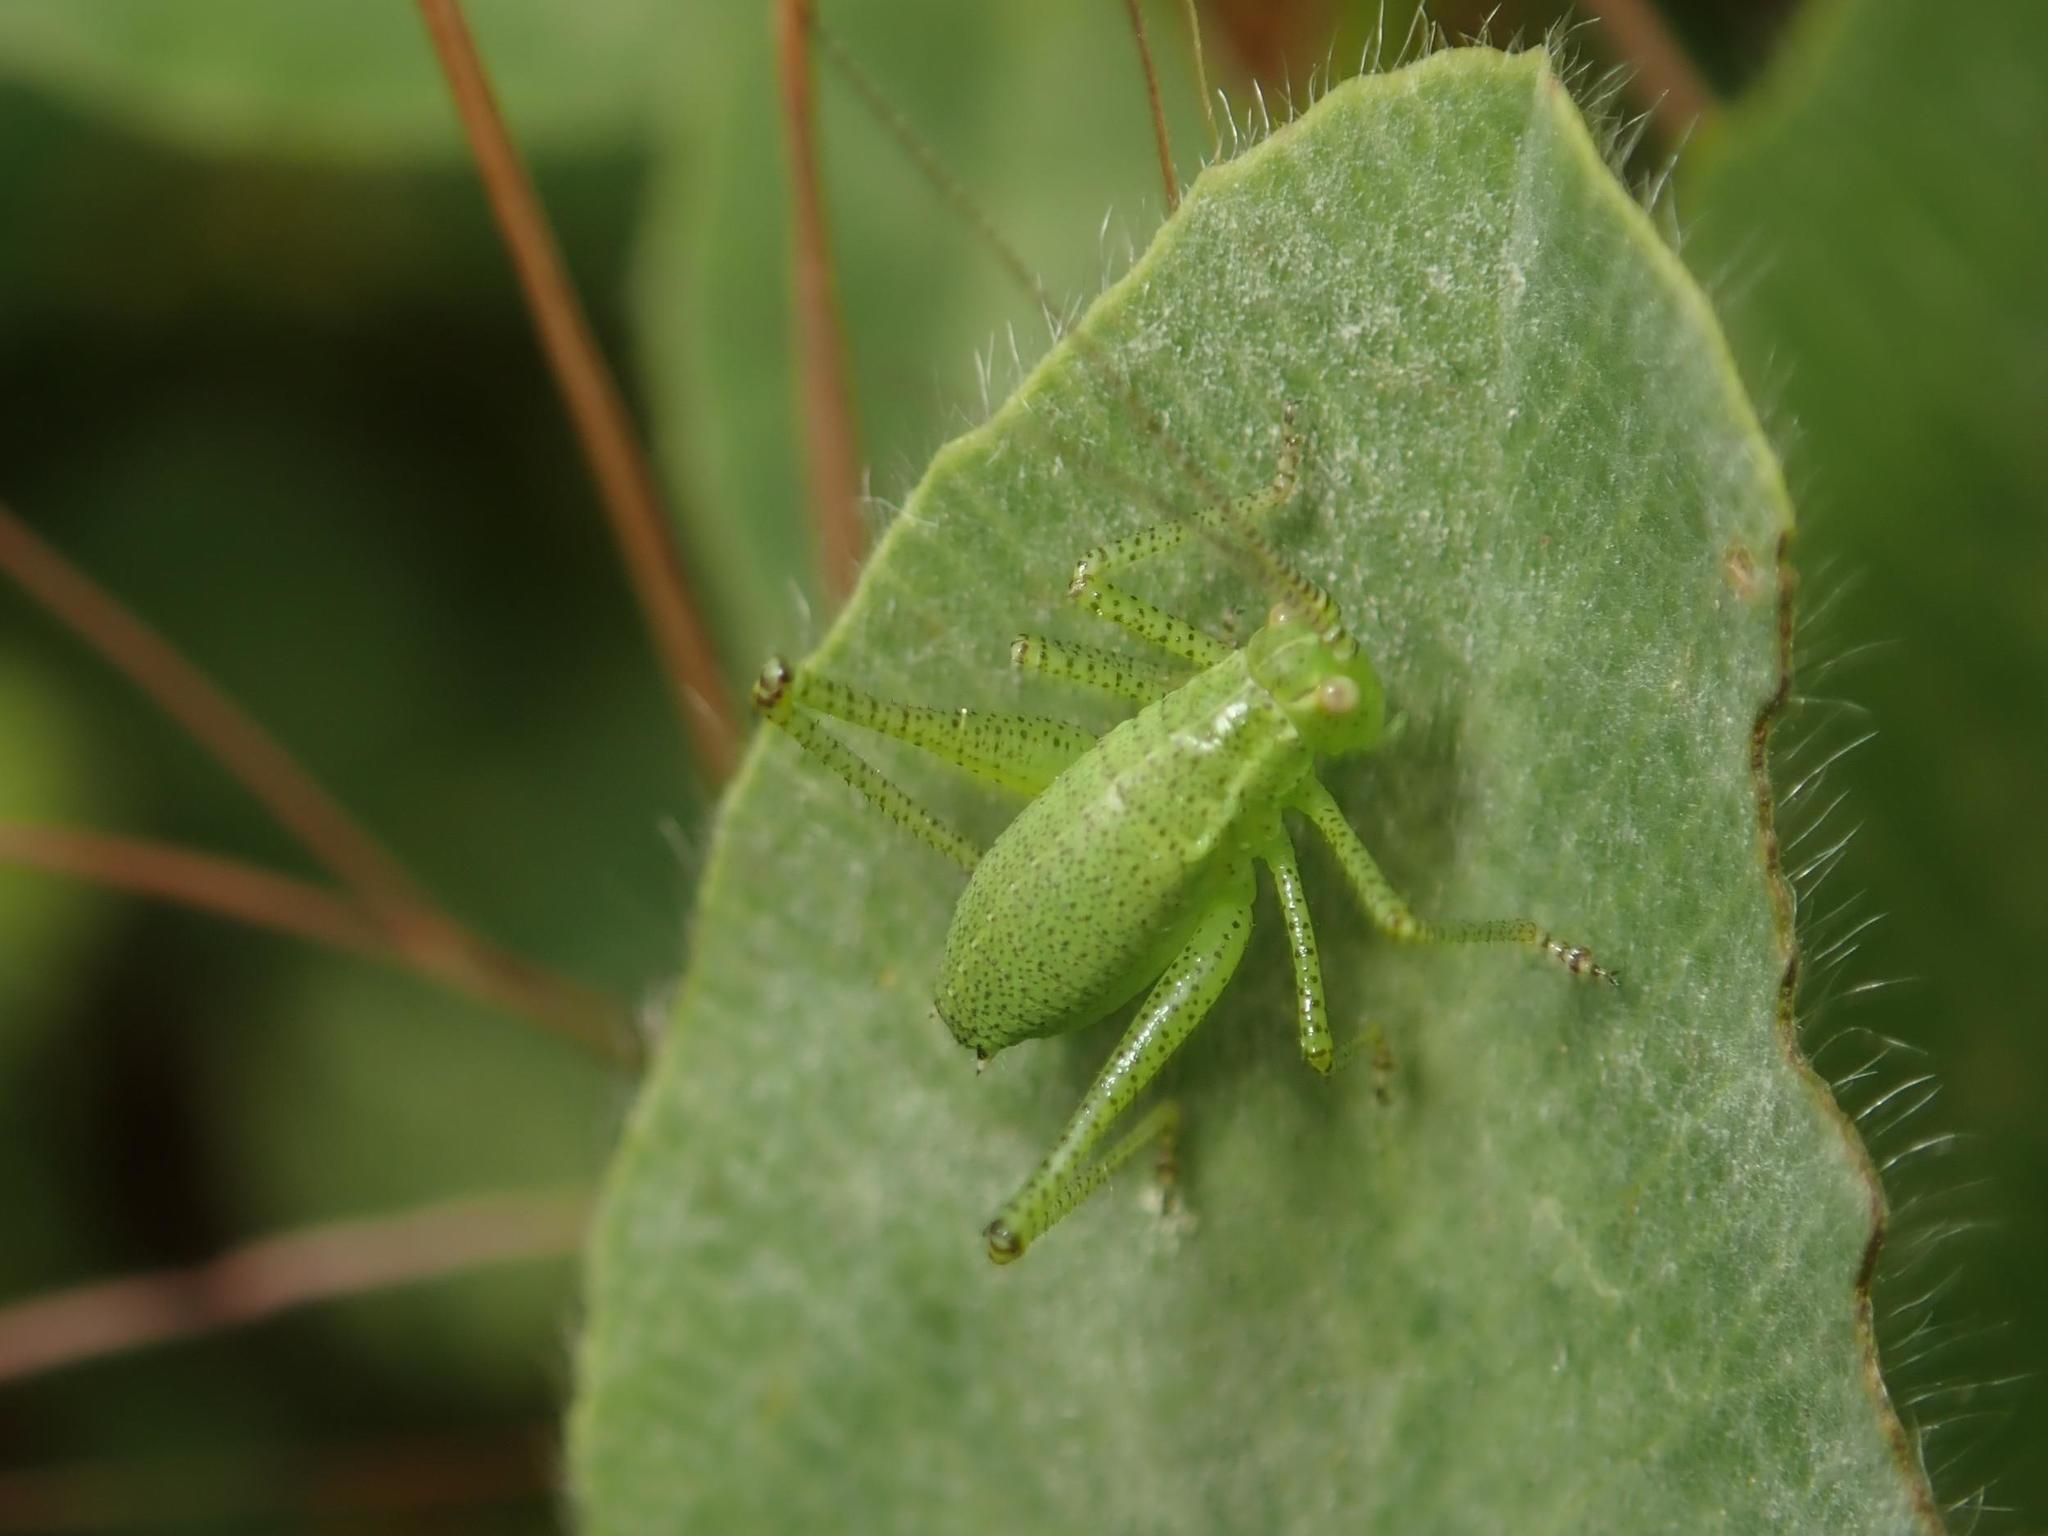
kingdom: Animalia
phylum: Arthropoda
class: Insecta
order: Orthoptera
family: Tettigoniidae
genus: Leptophyes
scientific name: Leptophyes punctatissima
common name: Speckled bush-cricket
